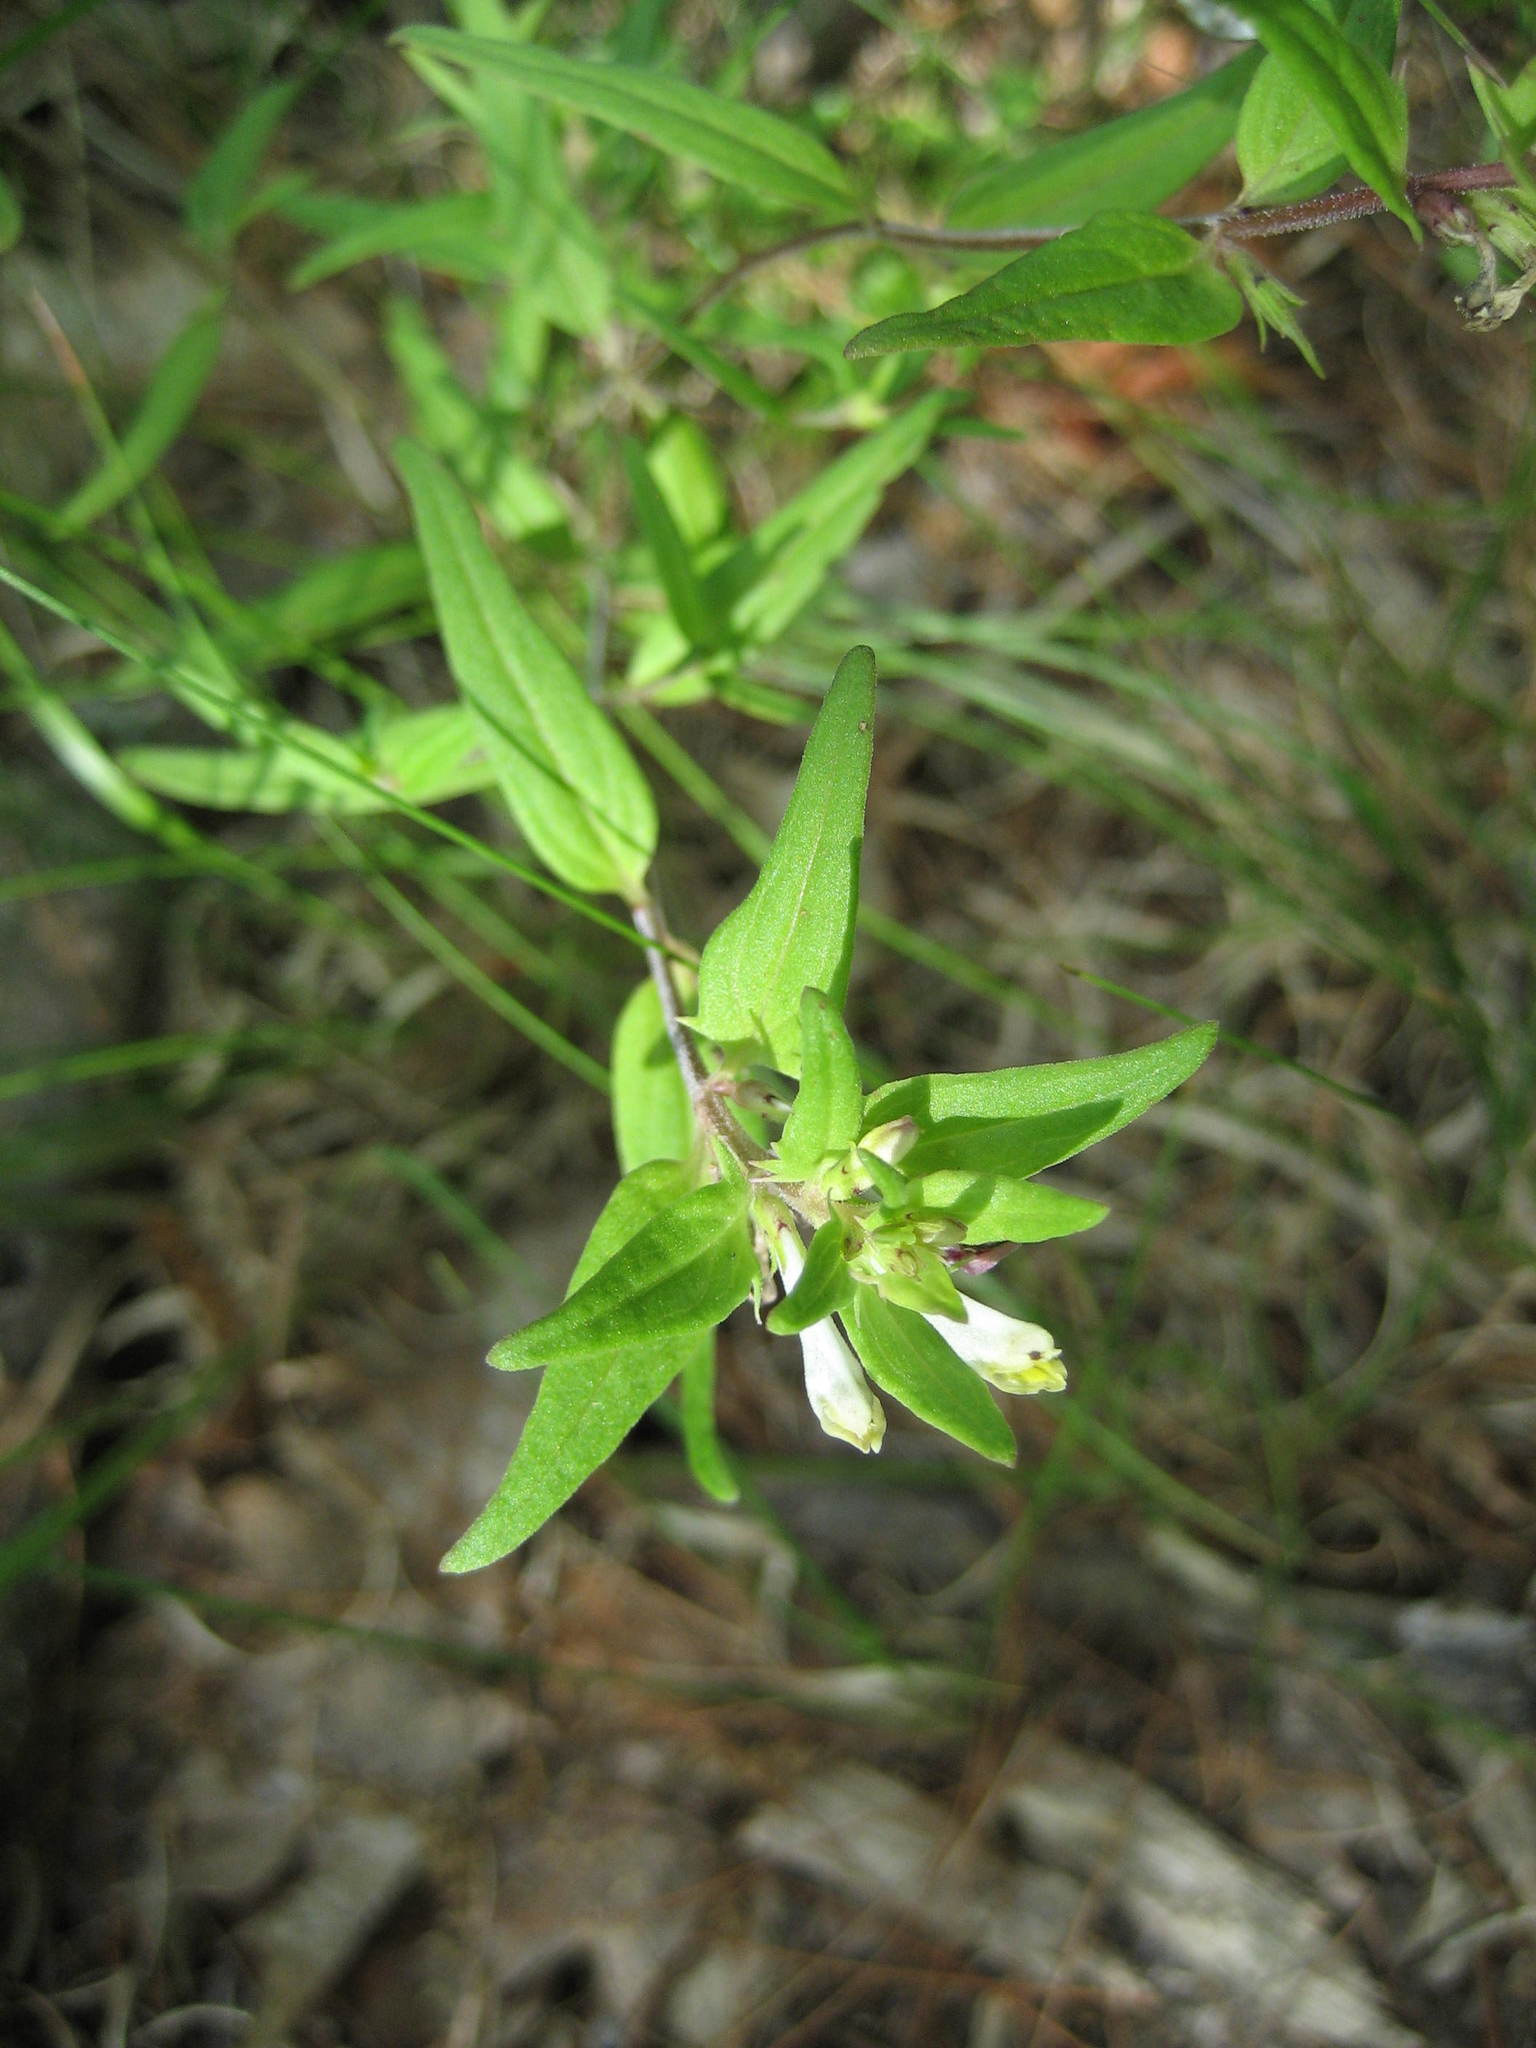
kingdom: Plantae
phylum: Tracheophyta
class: Magnoliopsida
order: Lamiales
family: Orobanchaceae
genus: Melampyrum
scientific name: Melampyrum lineare
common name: American cow-wheat
